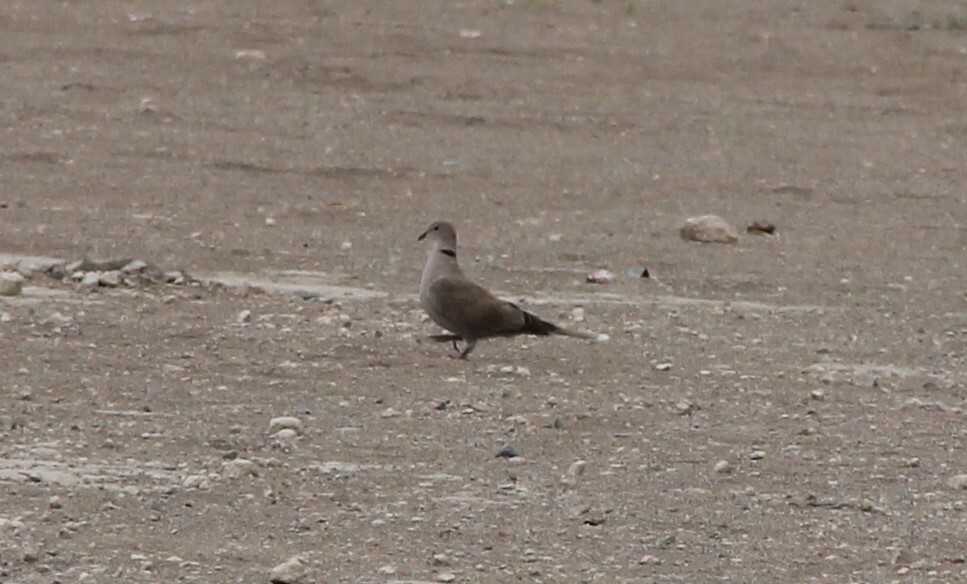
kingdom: Animalia
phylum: Chordata
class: Aves
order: Columbiformes
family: Columbidae
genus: Streptopelia
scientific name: Streptopelia decaocto
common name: Eurasian collared dove
